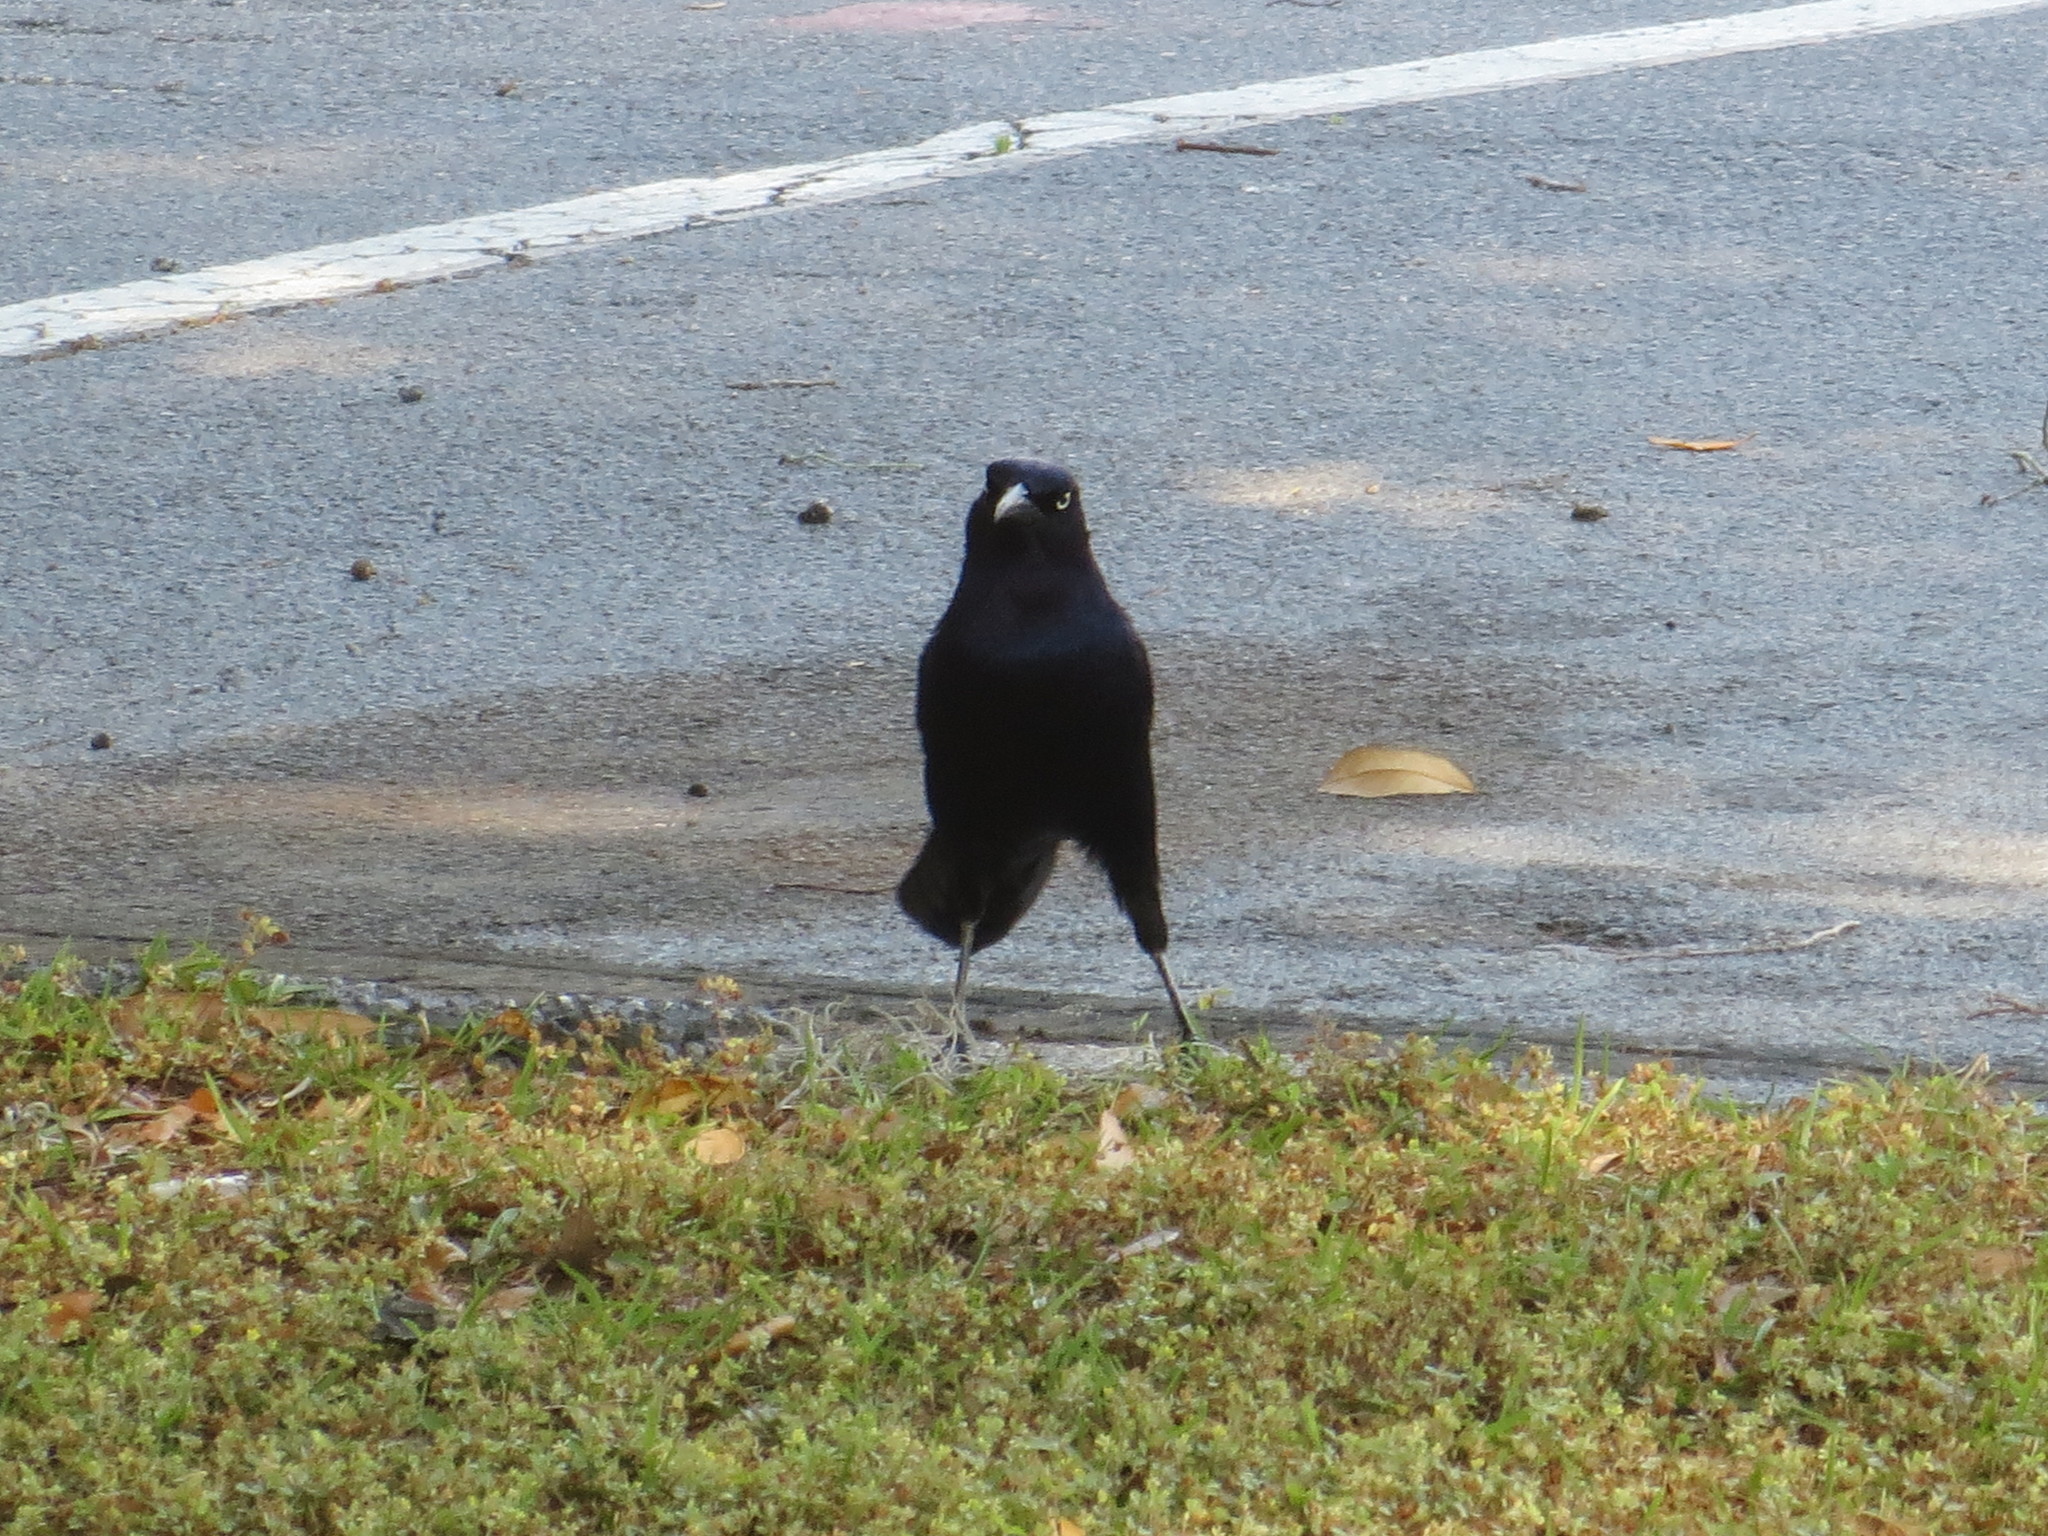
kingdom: Animalia
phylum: Chordata
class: Aves
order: Passeriformes
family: Icteridae
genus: Quiscalus
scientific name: Quiscalus major
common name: Boat-tailed grackle
